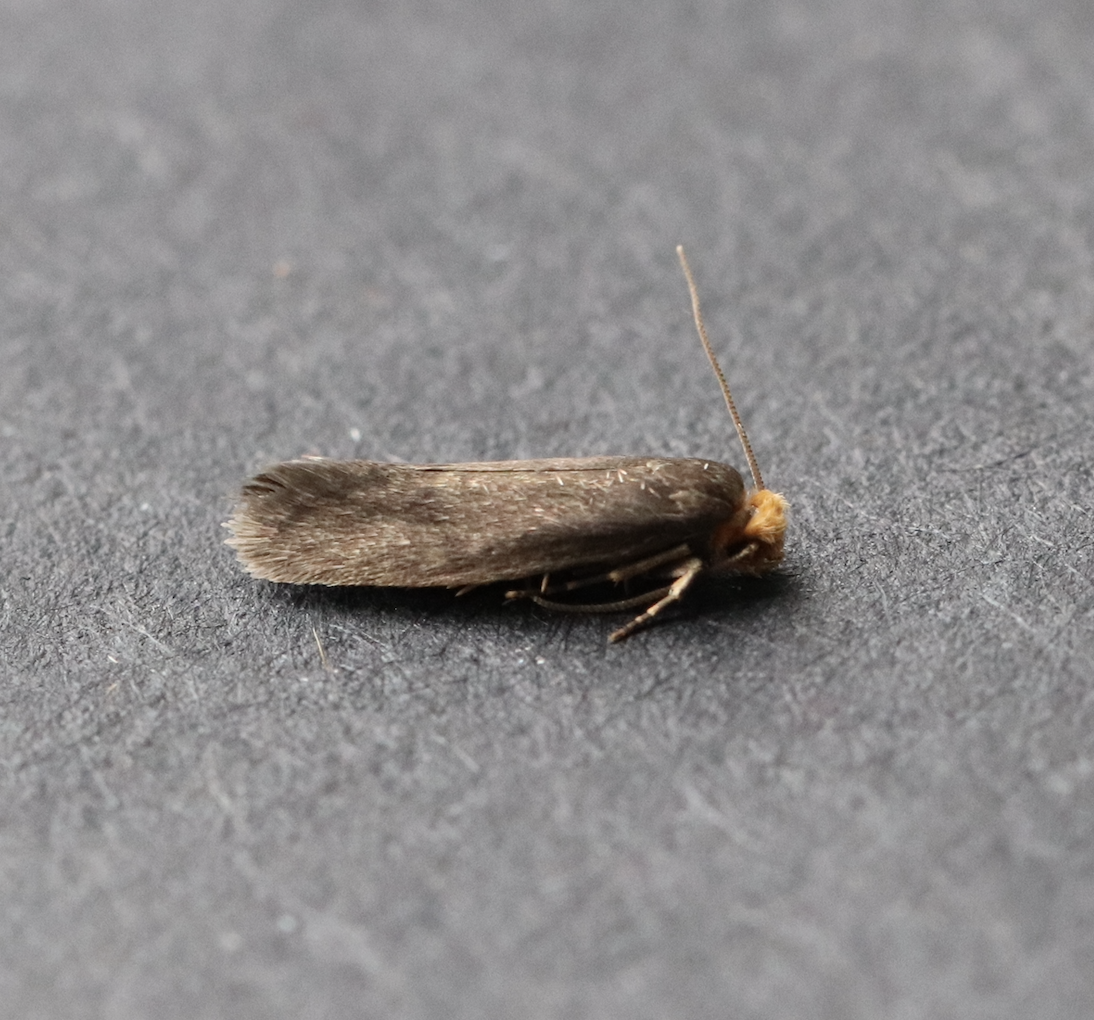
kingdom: Animalia
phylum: Arthropoda
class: Insecta
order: Lepidoptera
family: Tineidae
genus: Cephimallota
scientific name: Cephimallota crassiflavella
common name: Simple clothes
